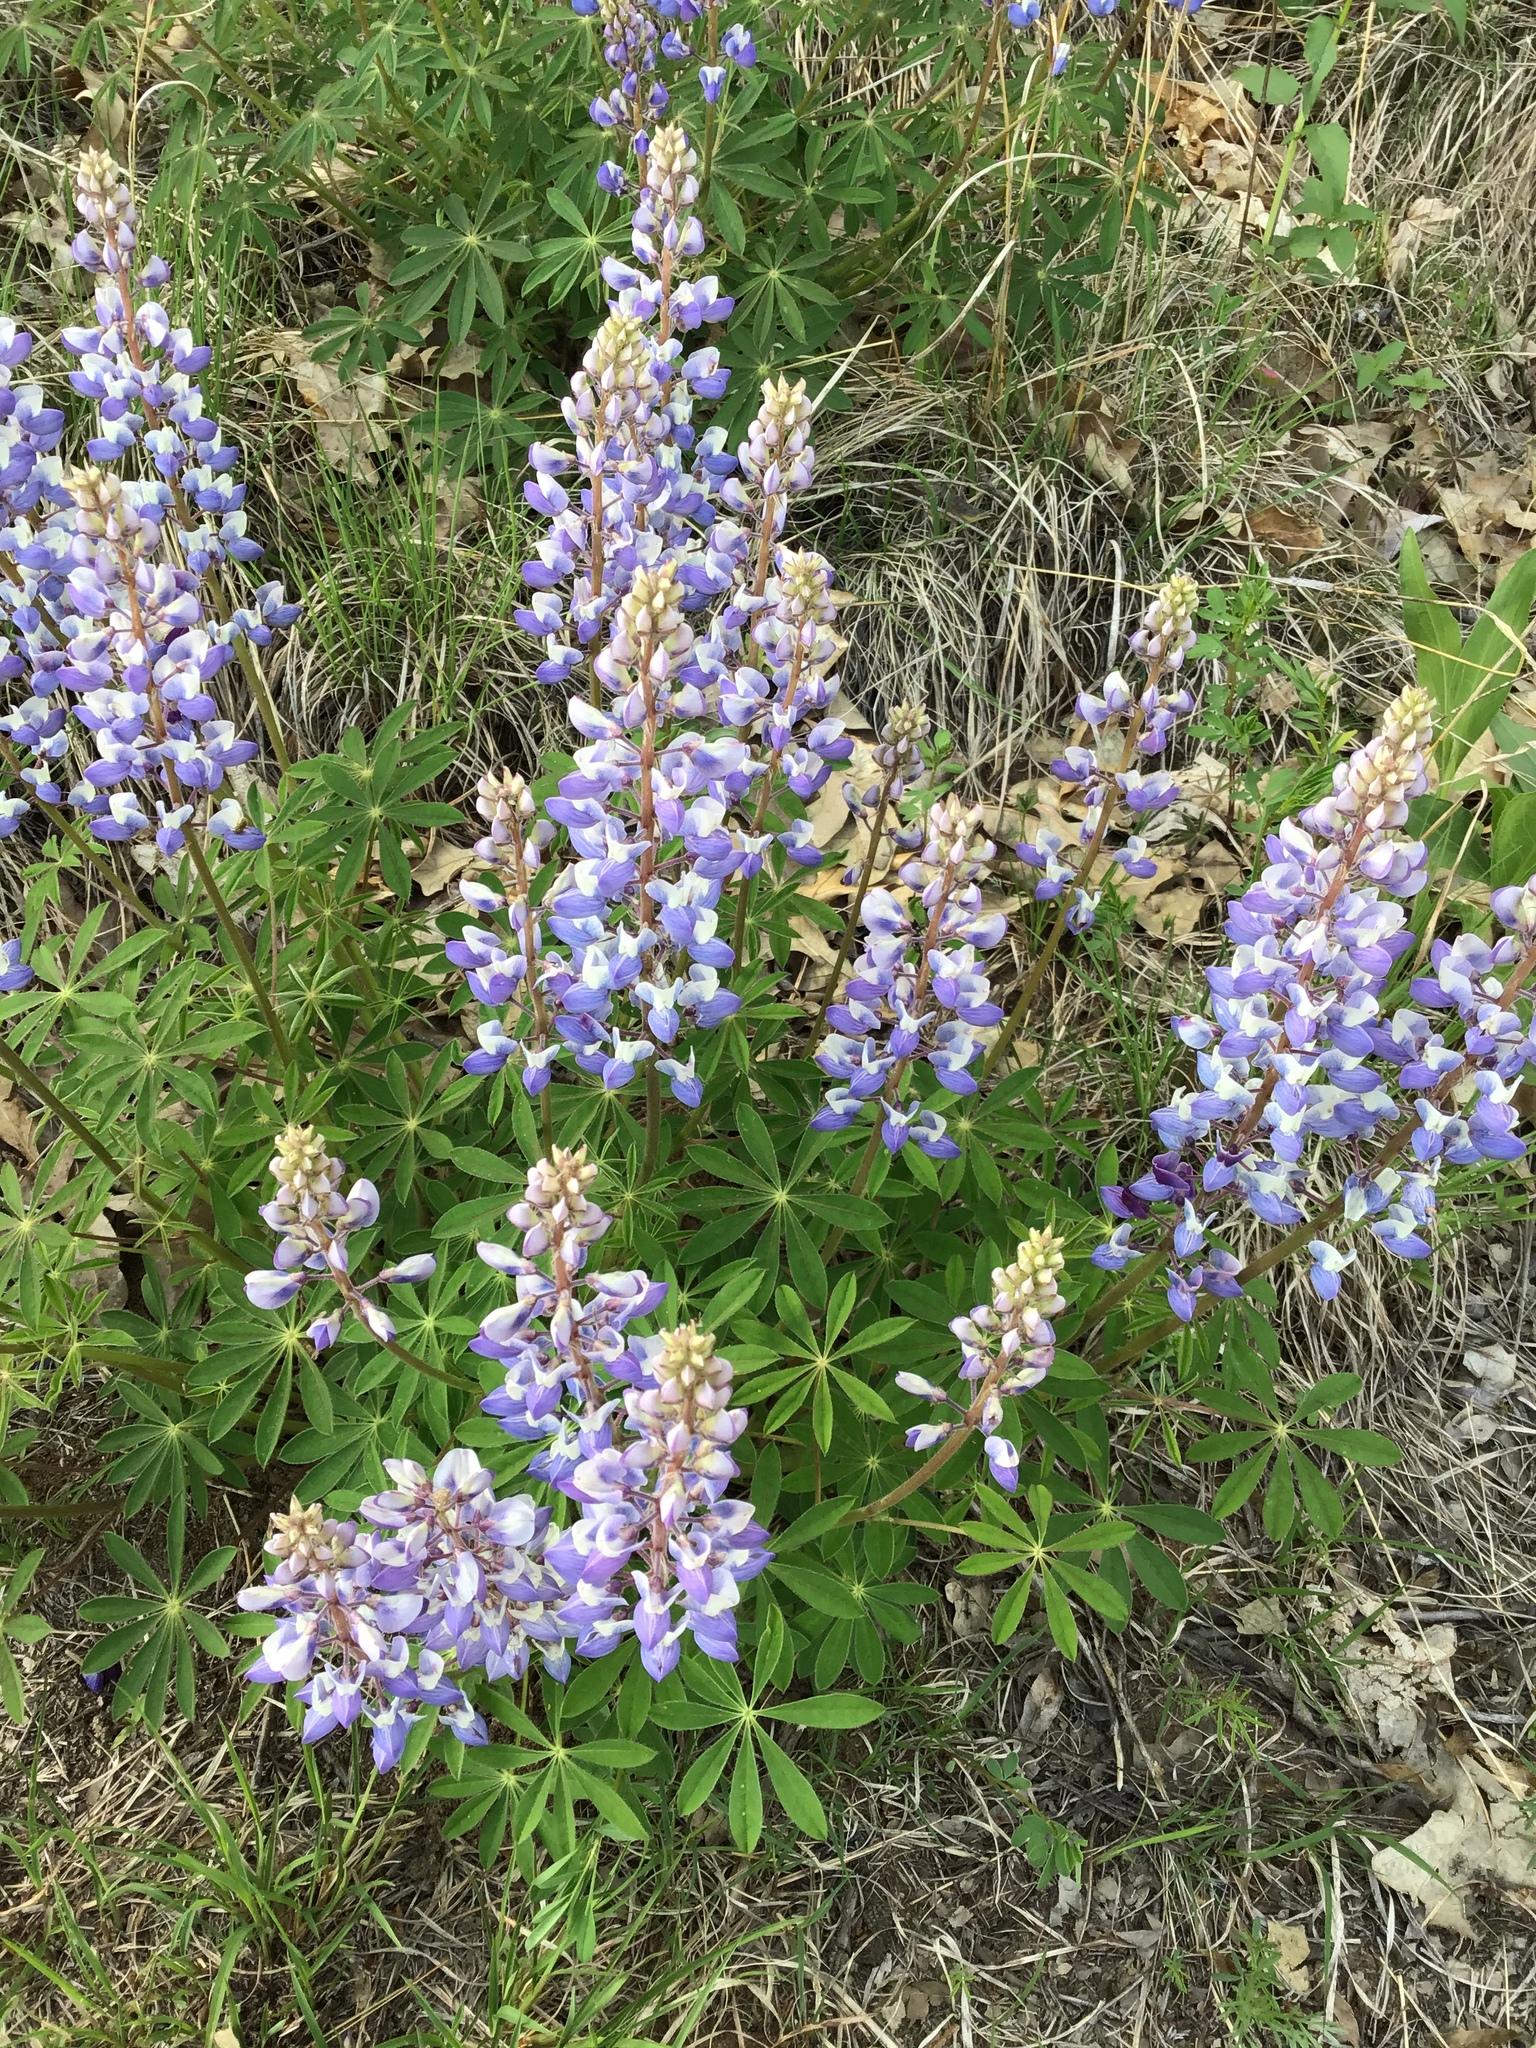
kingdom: Plantae
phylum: Tracheophyta
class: Magnoliopsida
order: Fabales
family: Fabaceae
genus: Lupinus
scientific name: Lupinus perennis
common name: Sundial lupine
